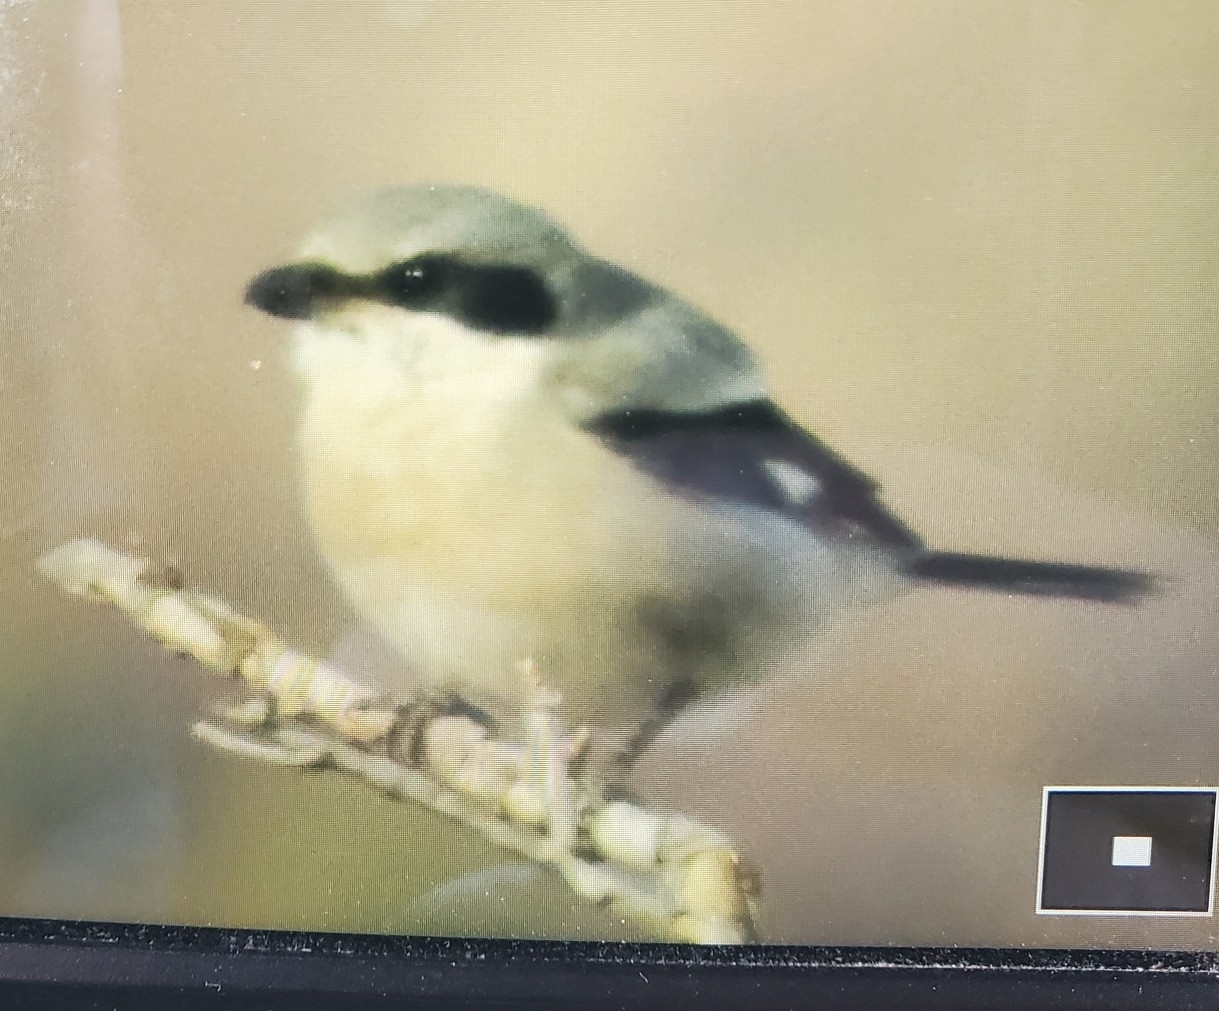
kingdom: Animalia
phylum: Chordata
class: Aves
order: Passeriformes
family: Laniidae
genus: Lanius
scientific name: Lanius ludovicianus
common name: Loggerhead shrike
